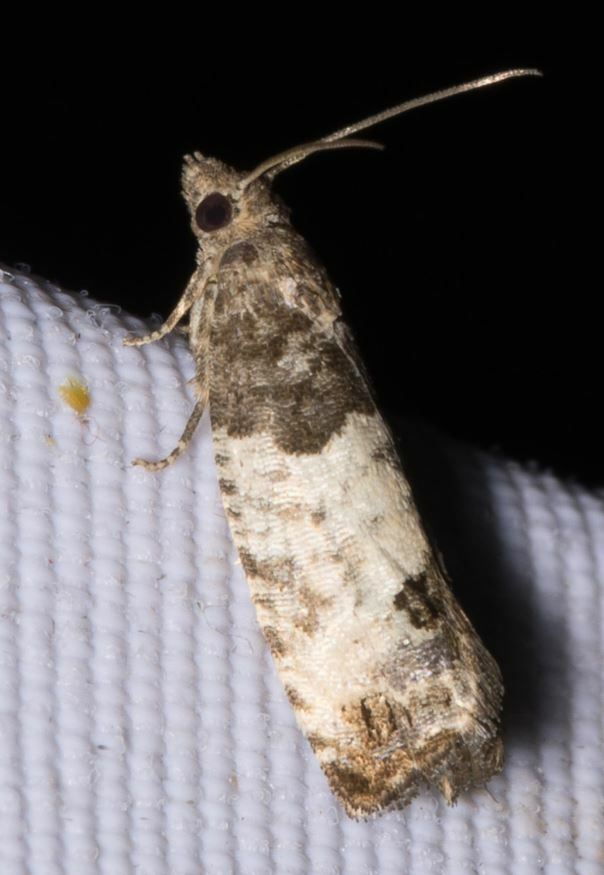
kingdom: Animalia
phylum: Arthropoda
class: Insecta
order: Lepidoptera
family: Tortricidae
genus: Spilonota
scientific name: Spilonota ocellana
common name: Bud moth
